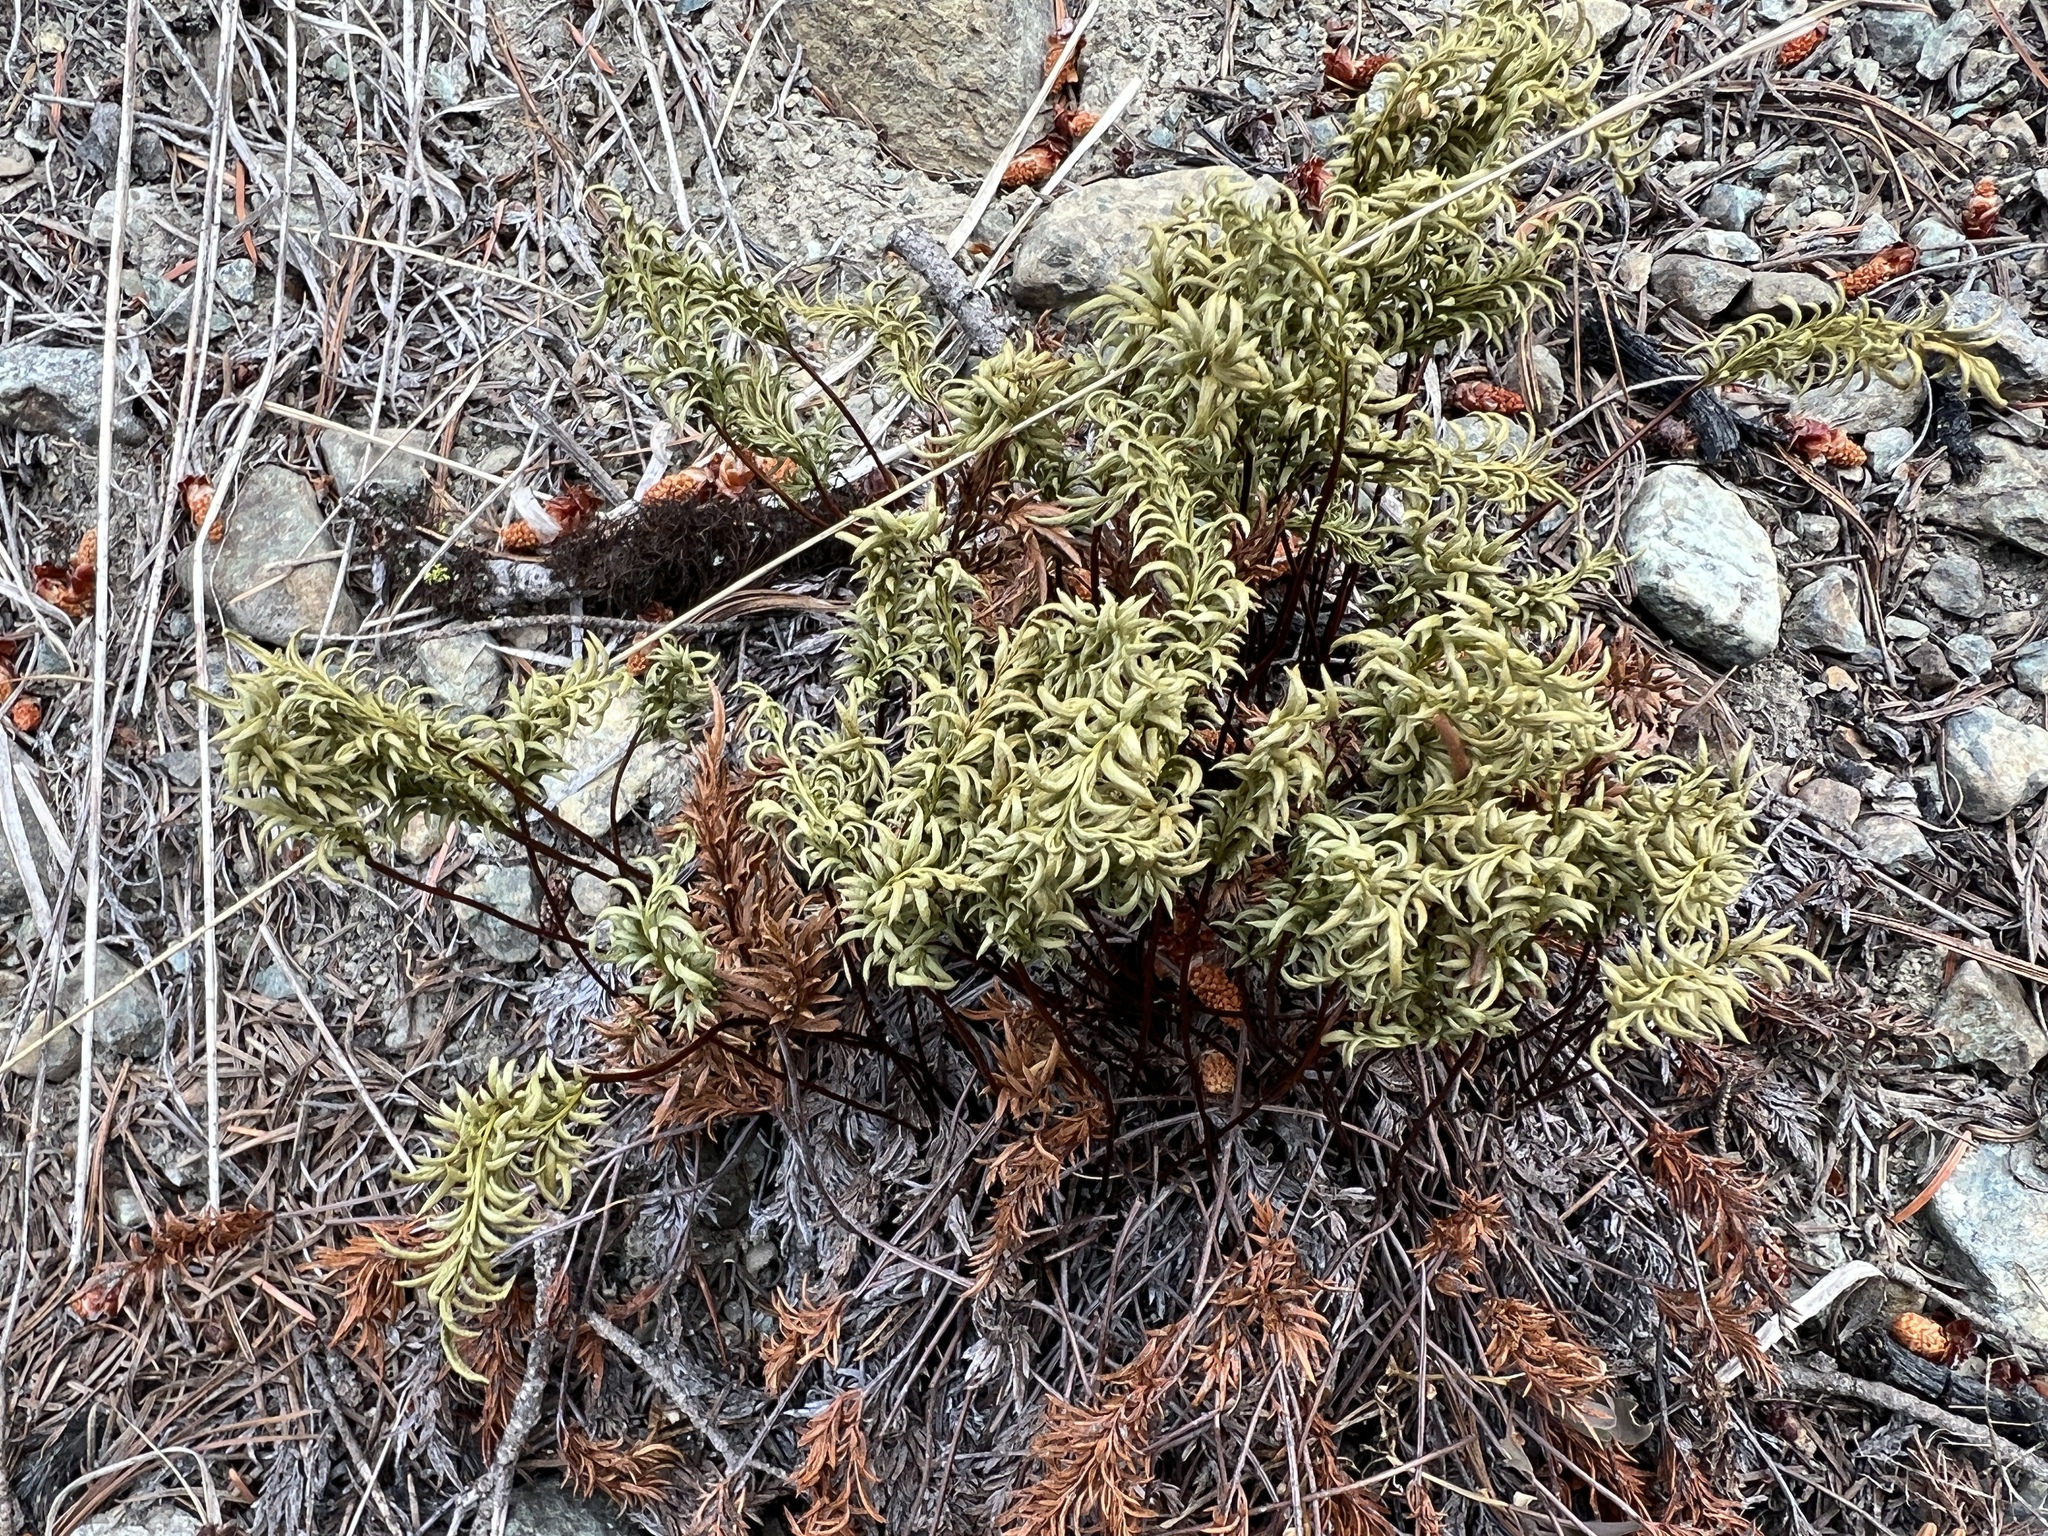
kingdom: Plantae
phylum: Tracheophyta
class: Polypodiopsida
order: Polypodiales
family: Pteridaceae
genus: Aspidotis
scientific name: Aspidotis densa
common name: Indian's dream
